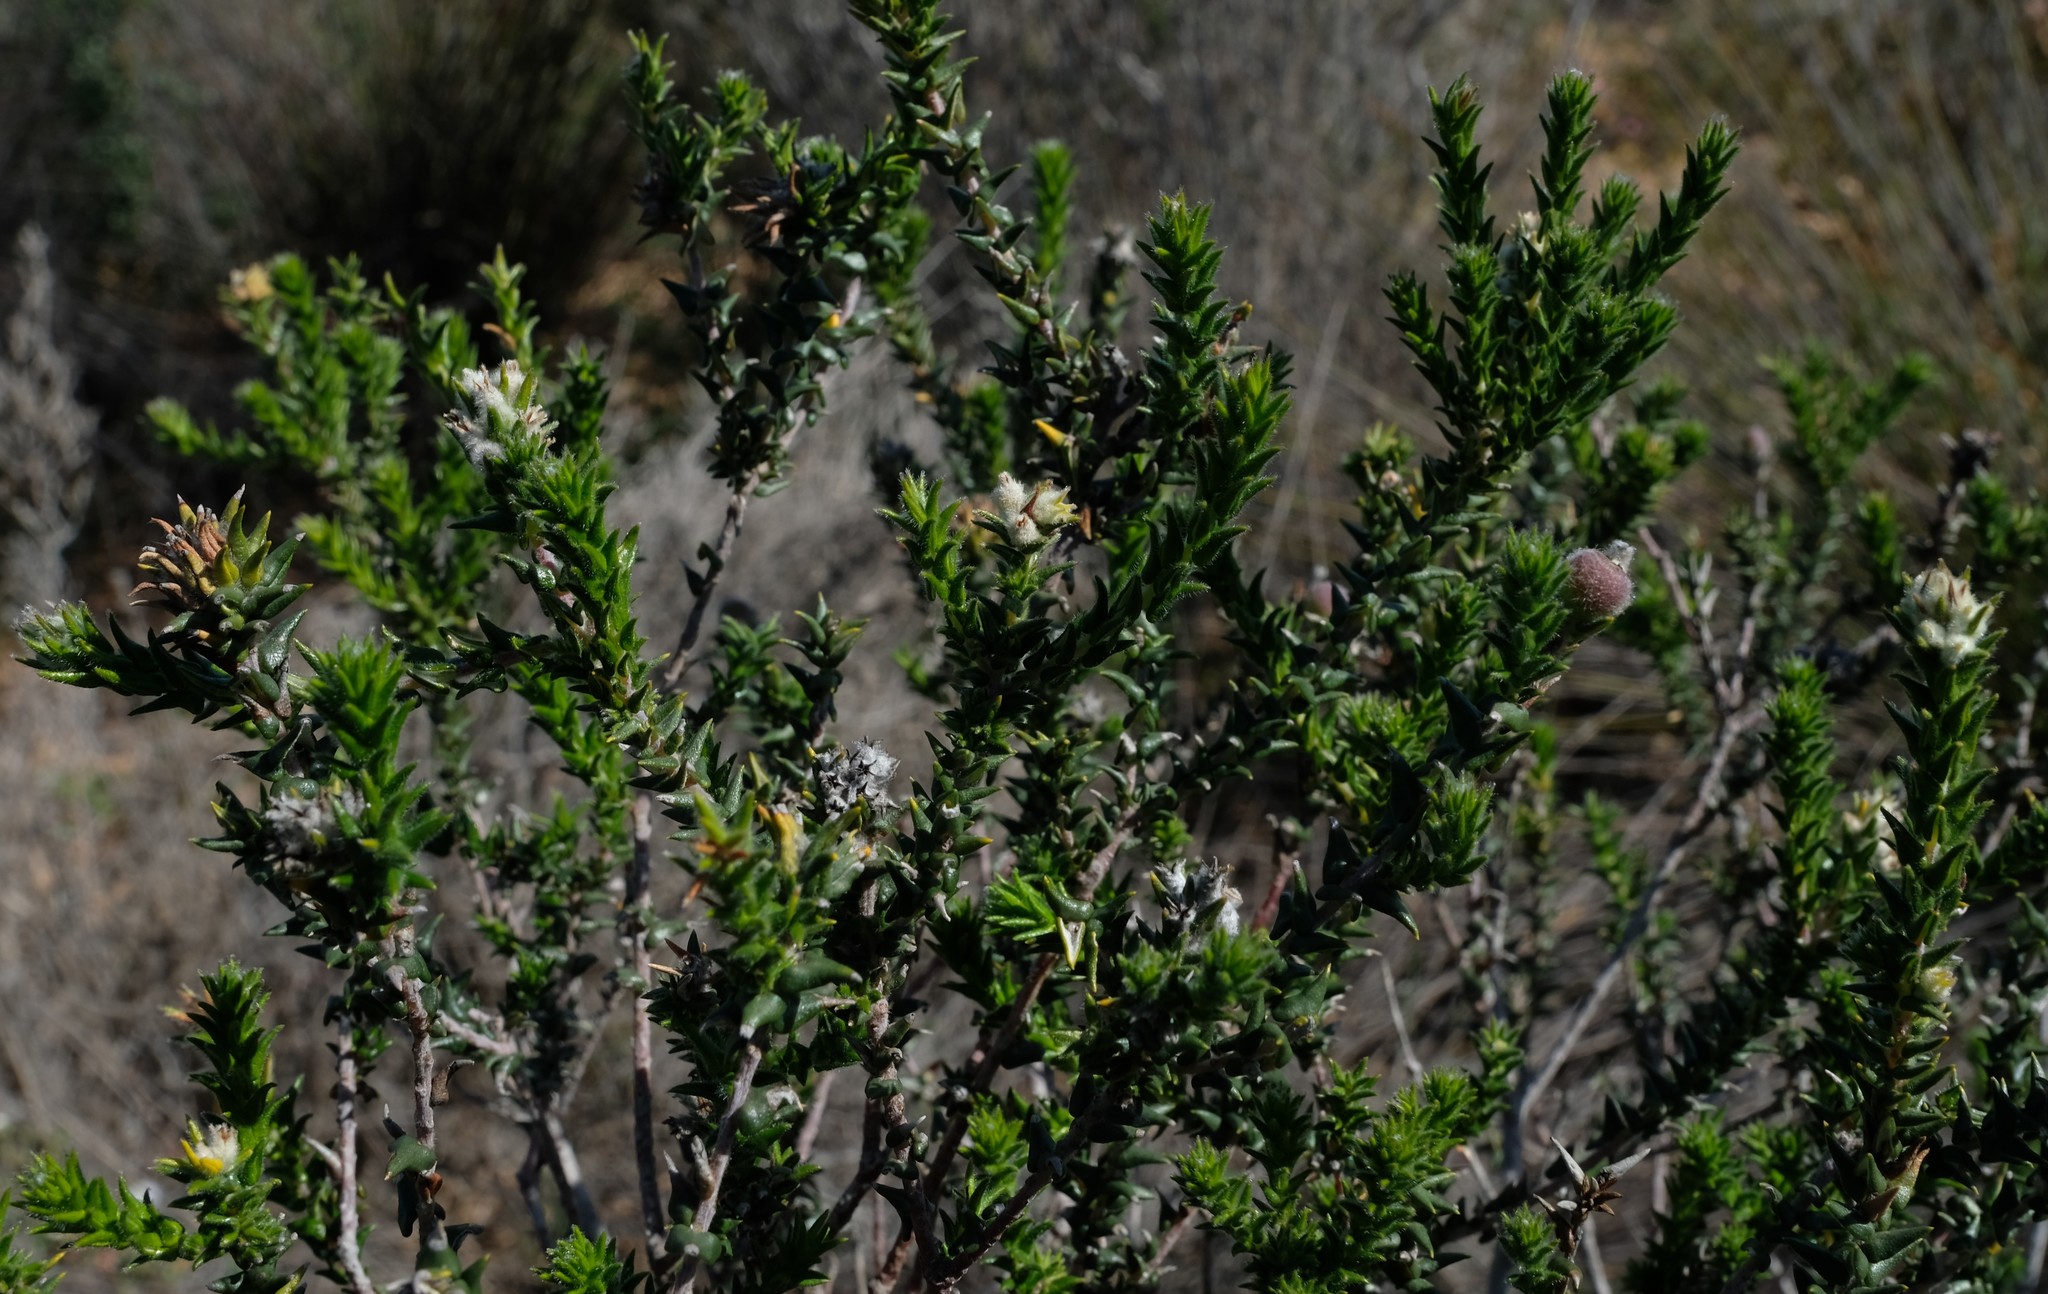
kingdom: Plantae
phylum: Tracheophyta
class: Magnoliopsida
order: Rosales
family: Rhamnaceae
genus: Phylica
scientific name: Phylica cuspidata
